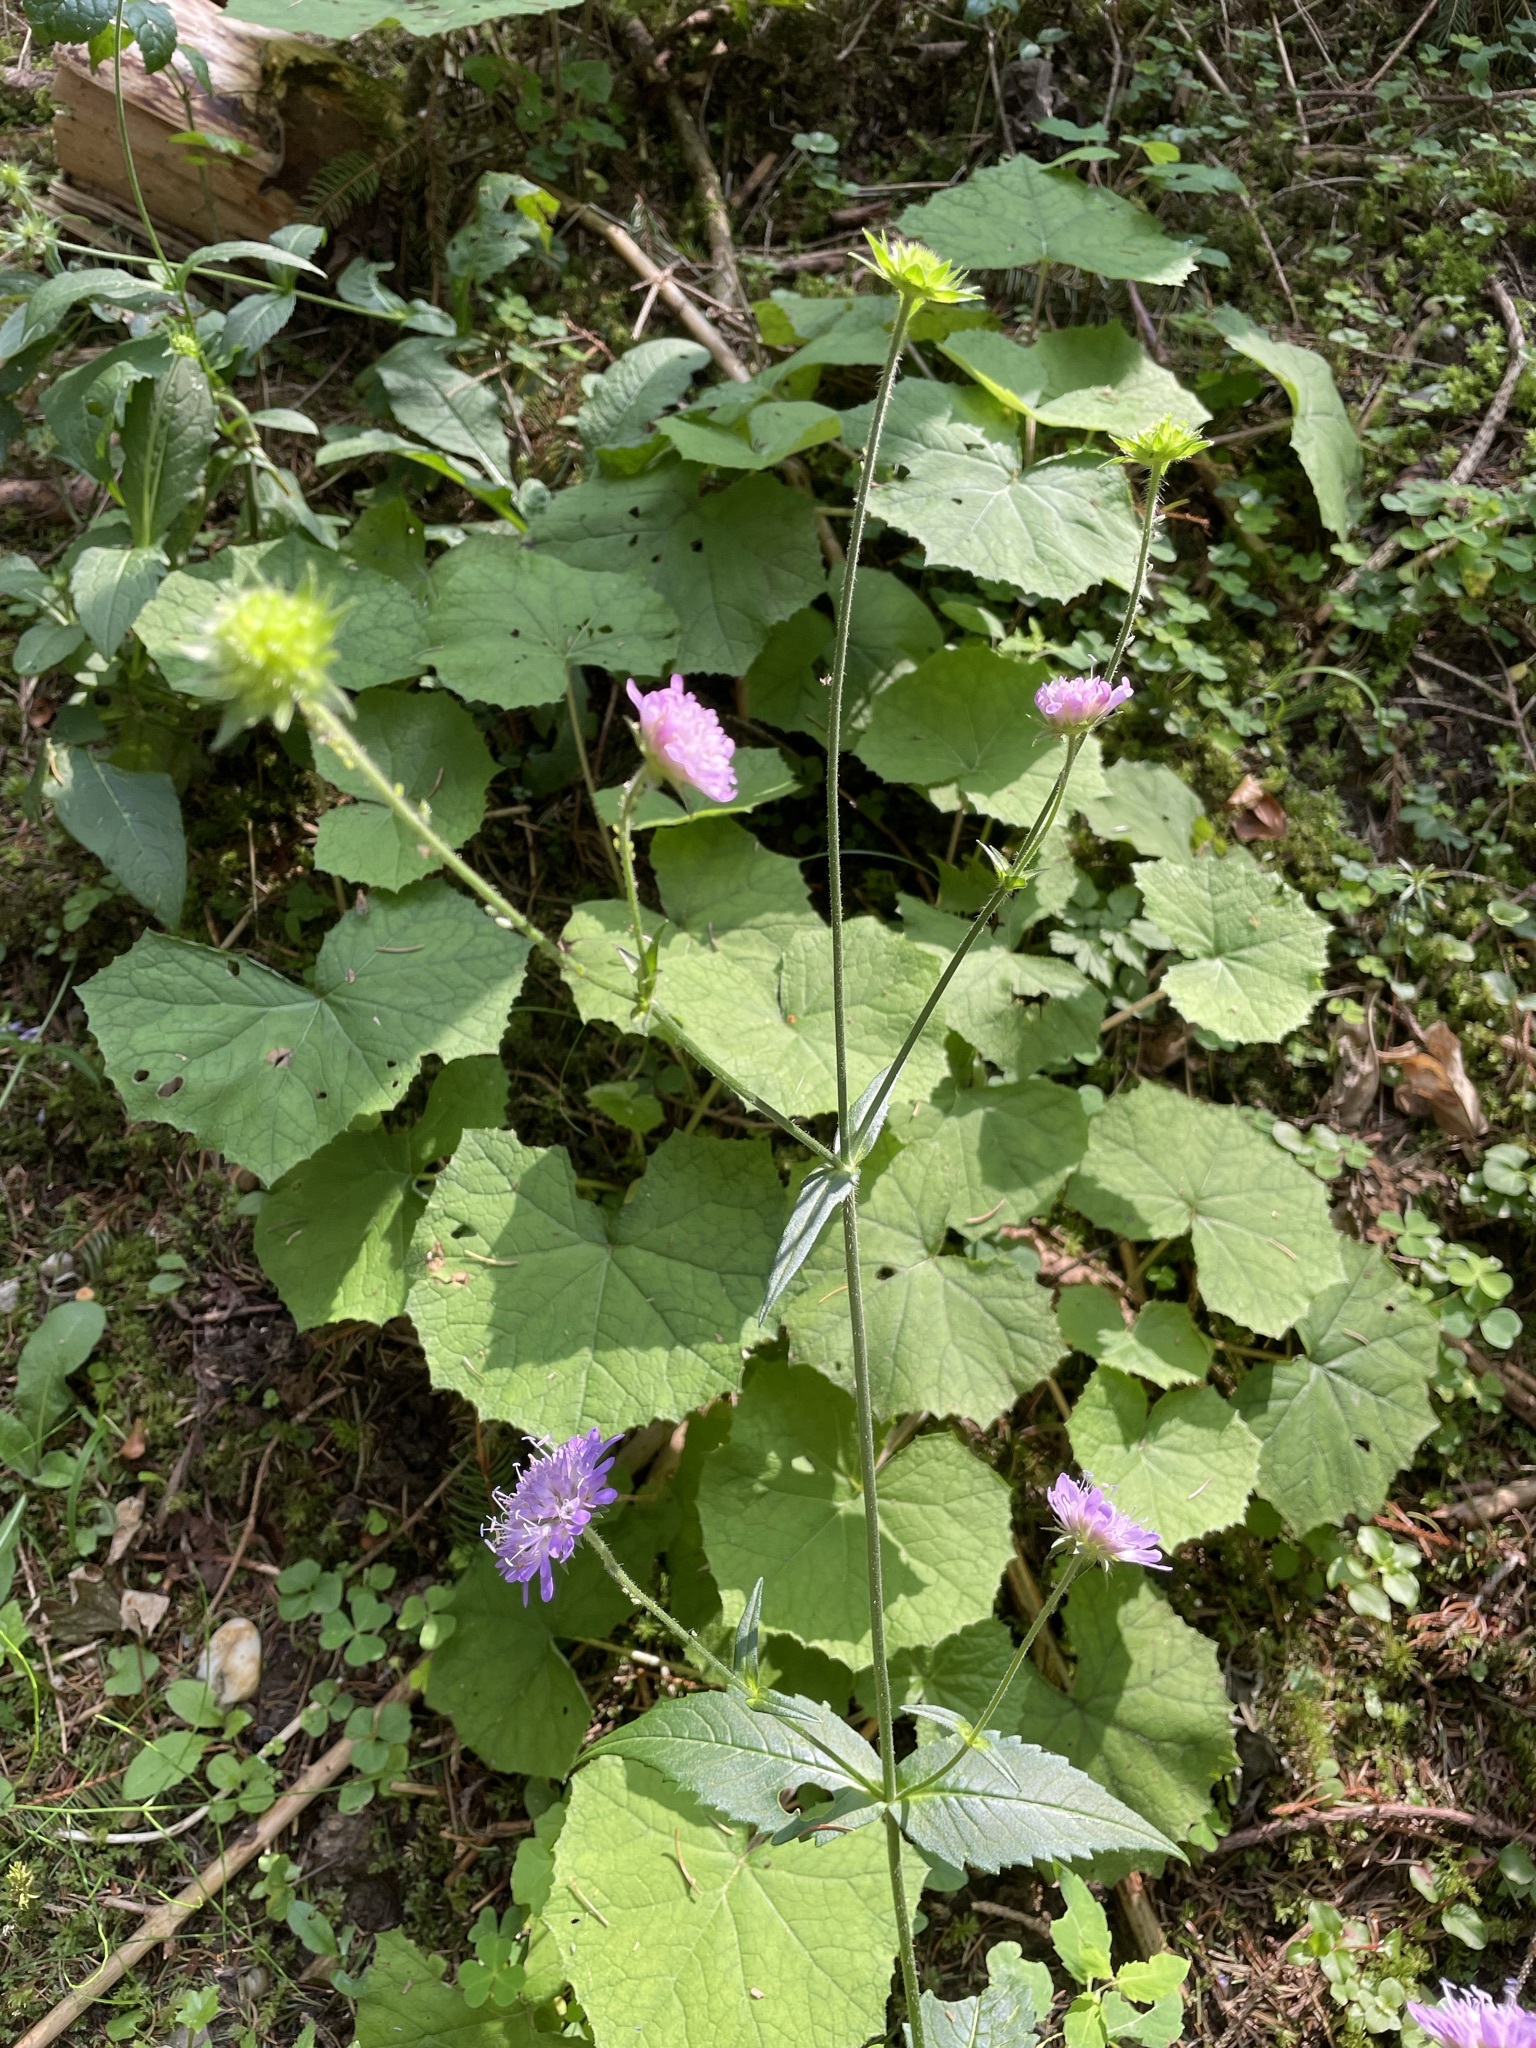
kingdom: Plantae
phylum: Tracheophyta
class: Magnoliopsida
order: Dipsacales
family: Caprifoliaceae
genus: Knautia
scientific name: Knautia dipsacifolia
